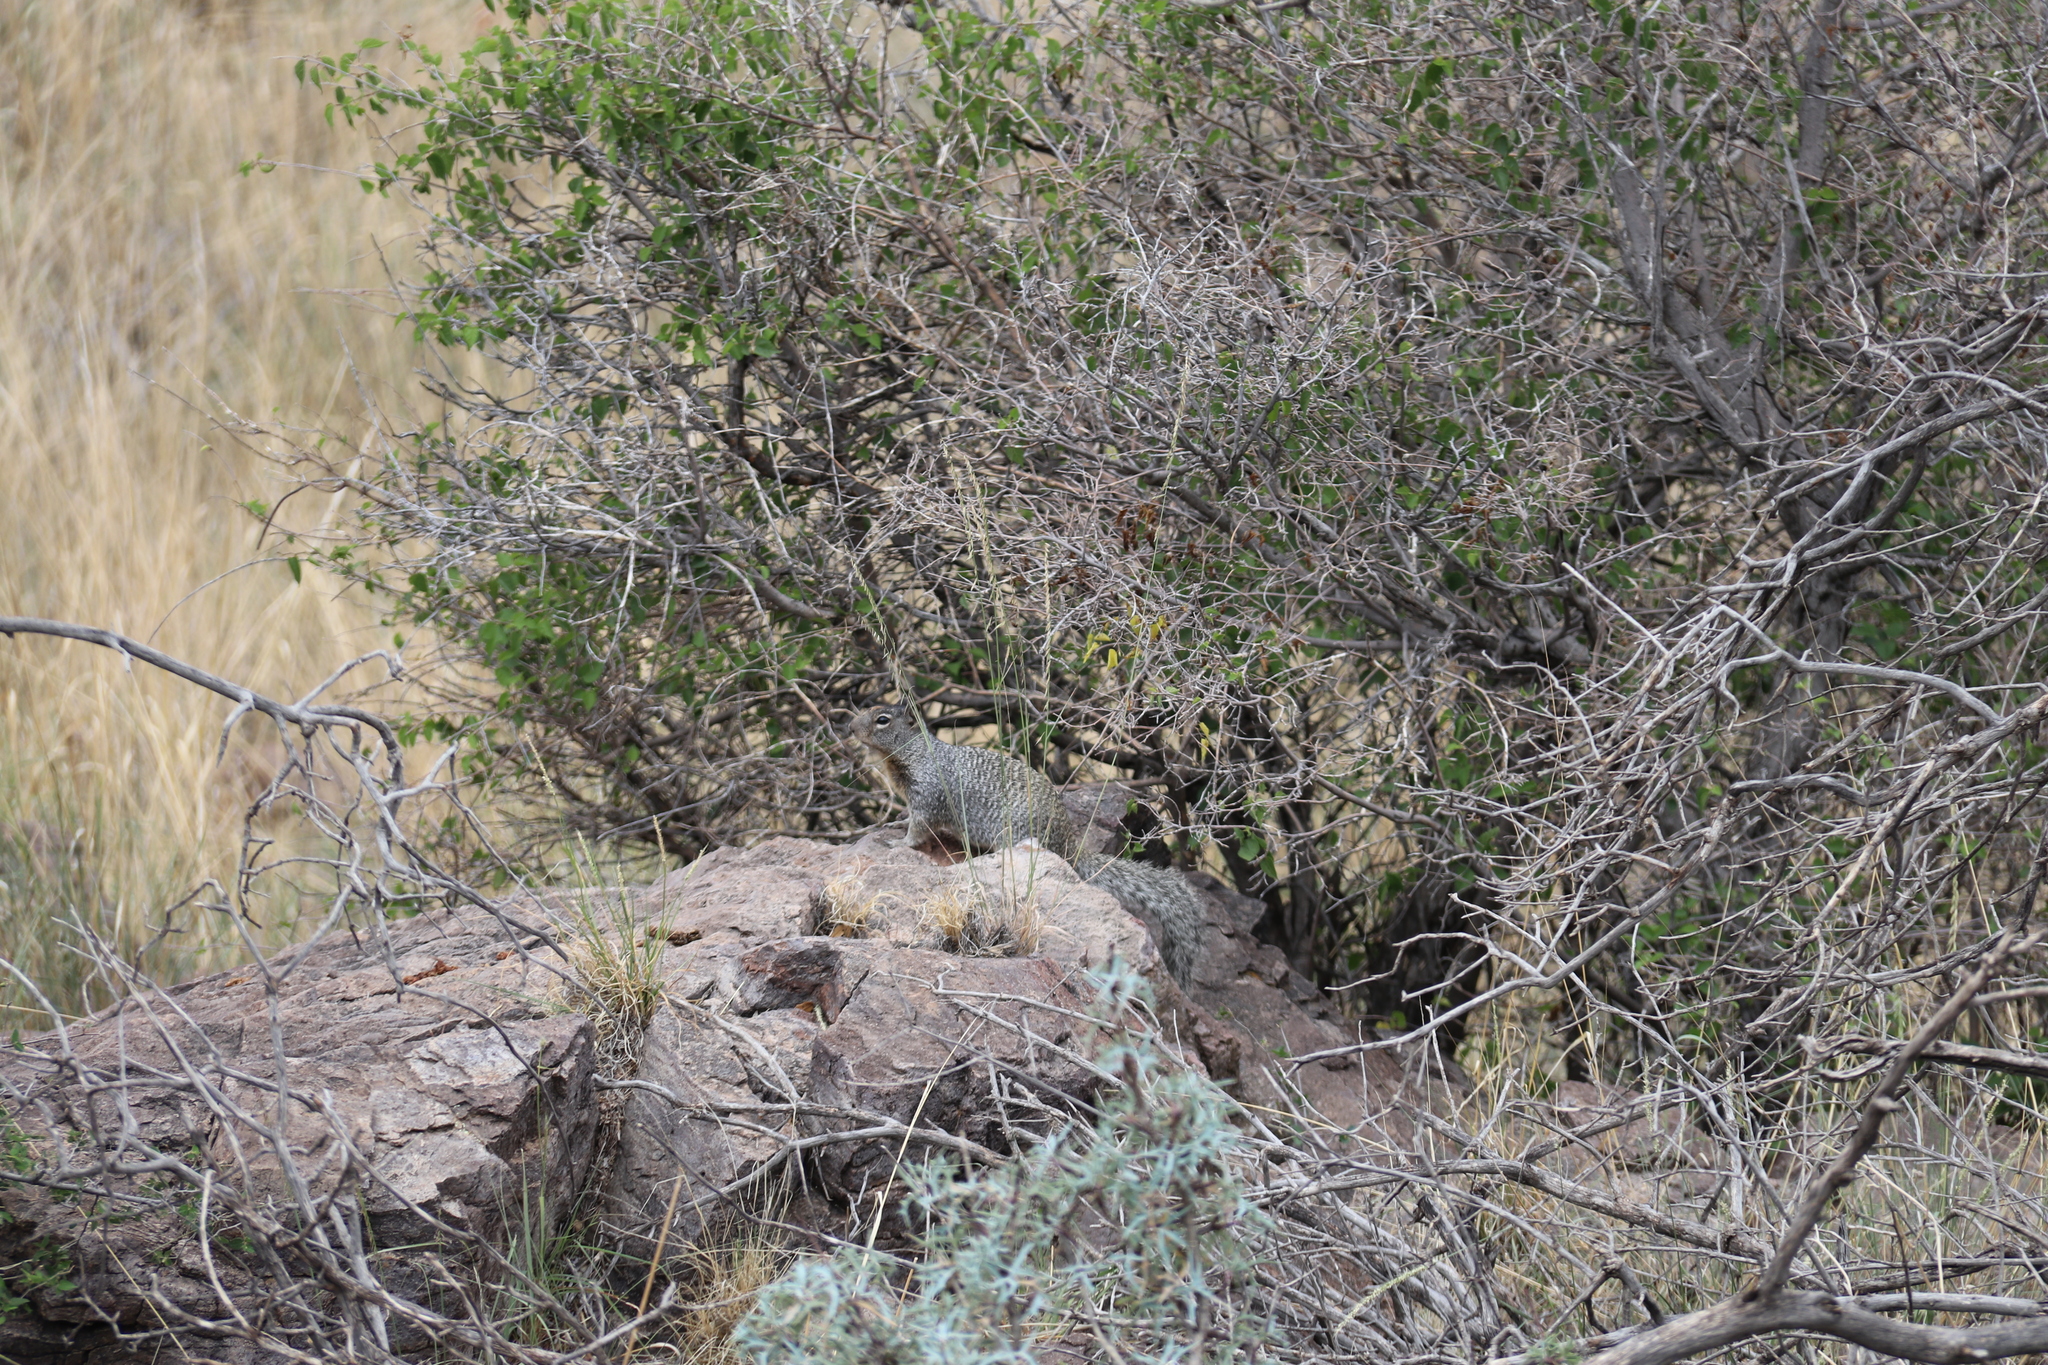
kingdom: Animalia
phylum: Chordata
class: Mammalia
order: Rodentia
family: Sciuridae
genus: Otospermophilus
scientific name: Otospermophilus variegatus
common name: Rock squirrel
